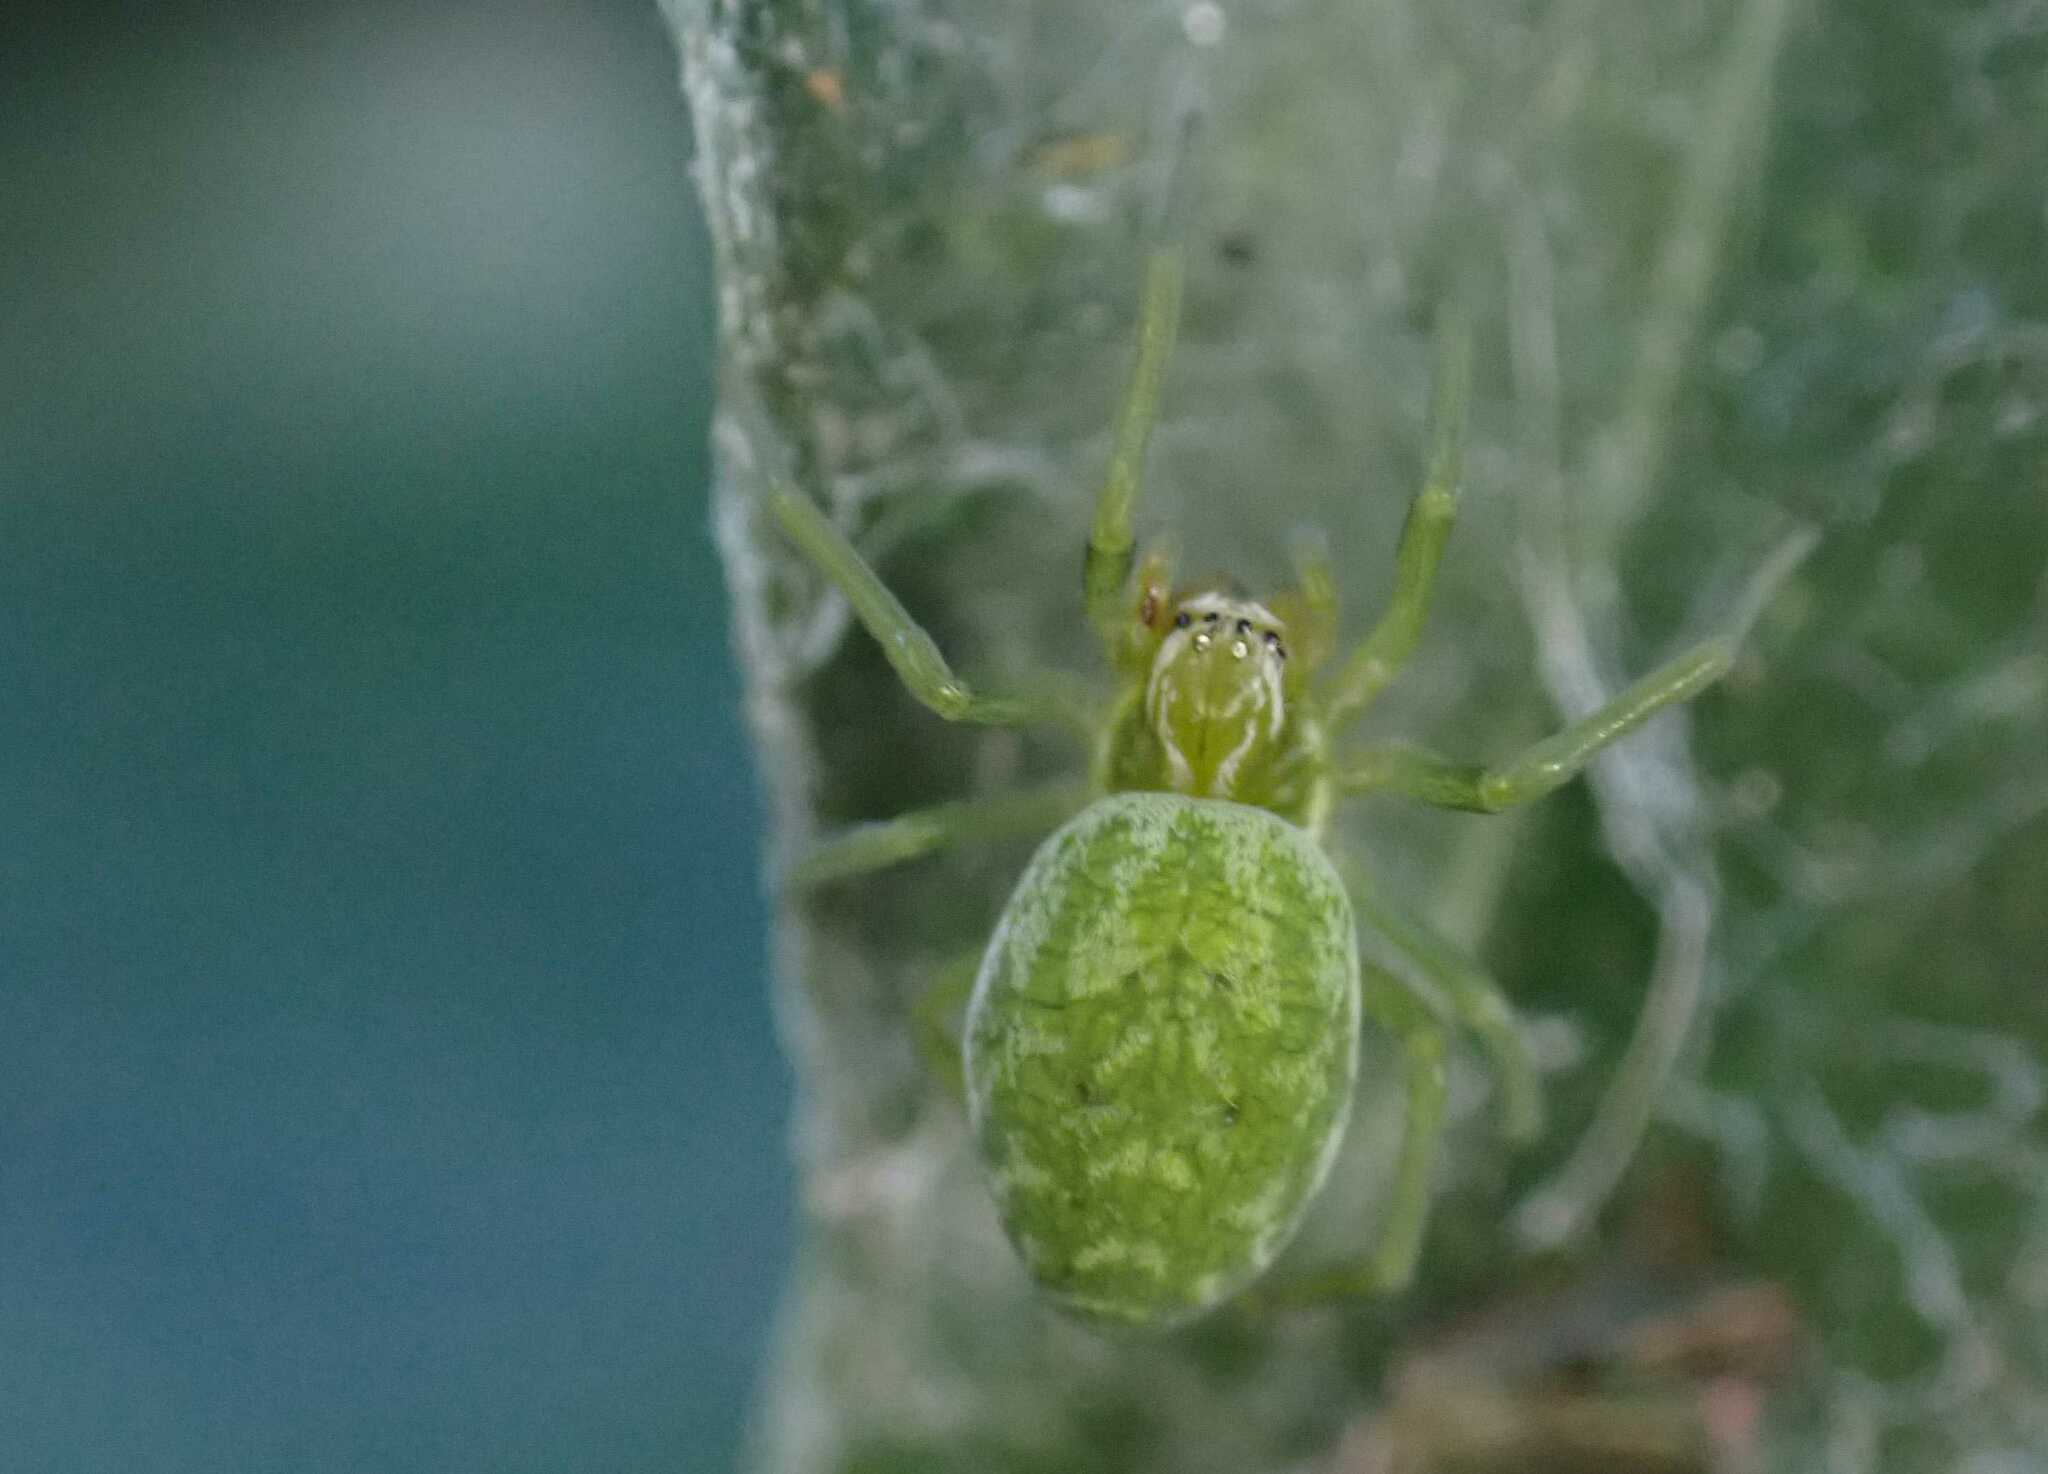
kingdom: Animalia
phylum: Arthropoda
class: Arachnida
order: Araneae
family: Dictynidae
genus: Nigma
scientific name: Nigma walckenaeri
